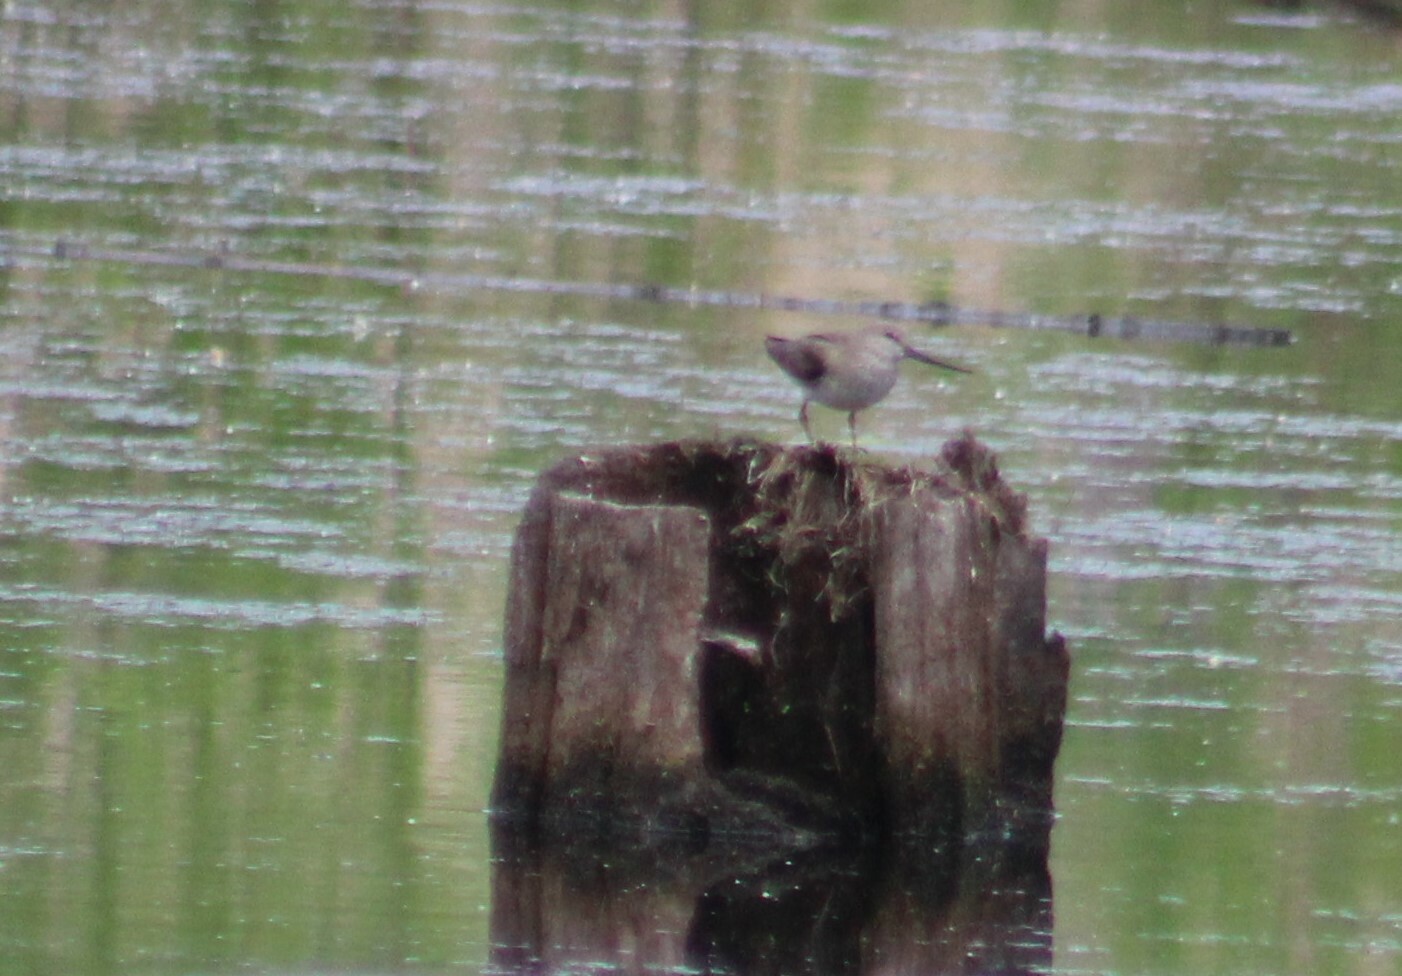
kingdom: Animalia
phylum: Chordata
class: Aves
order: Charadriiformes
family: Scolopacidae
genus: Xenus
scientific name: Xenus cinereus
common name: Terek sandpiper
